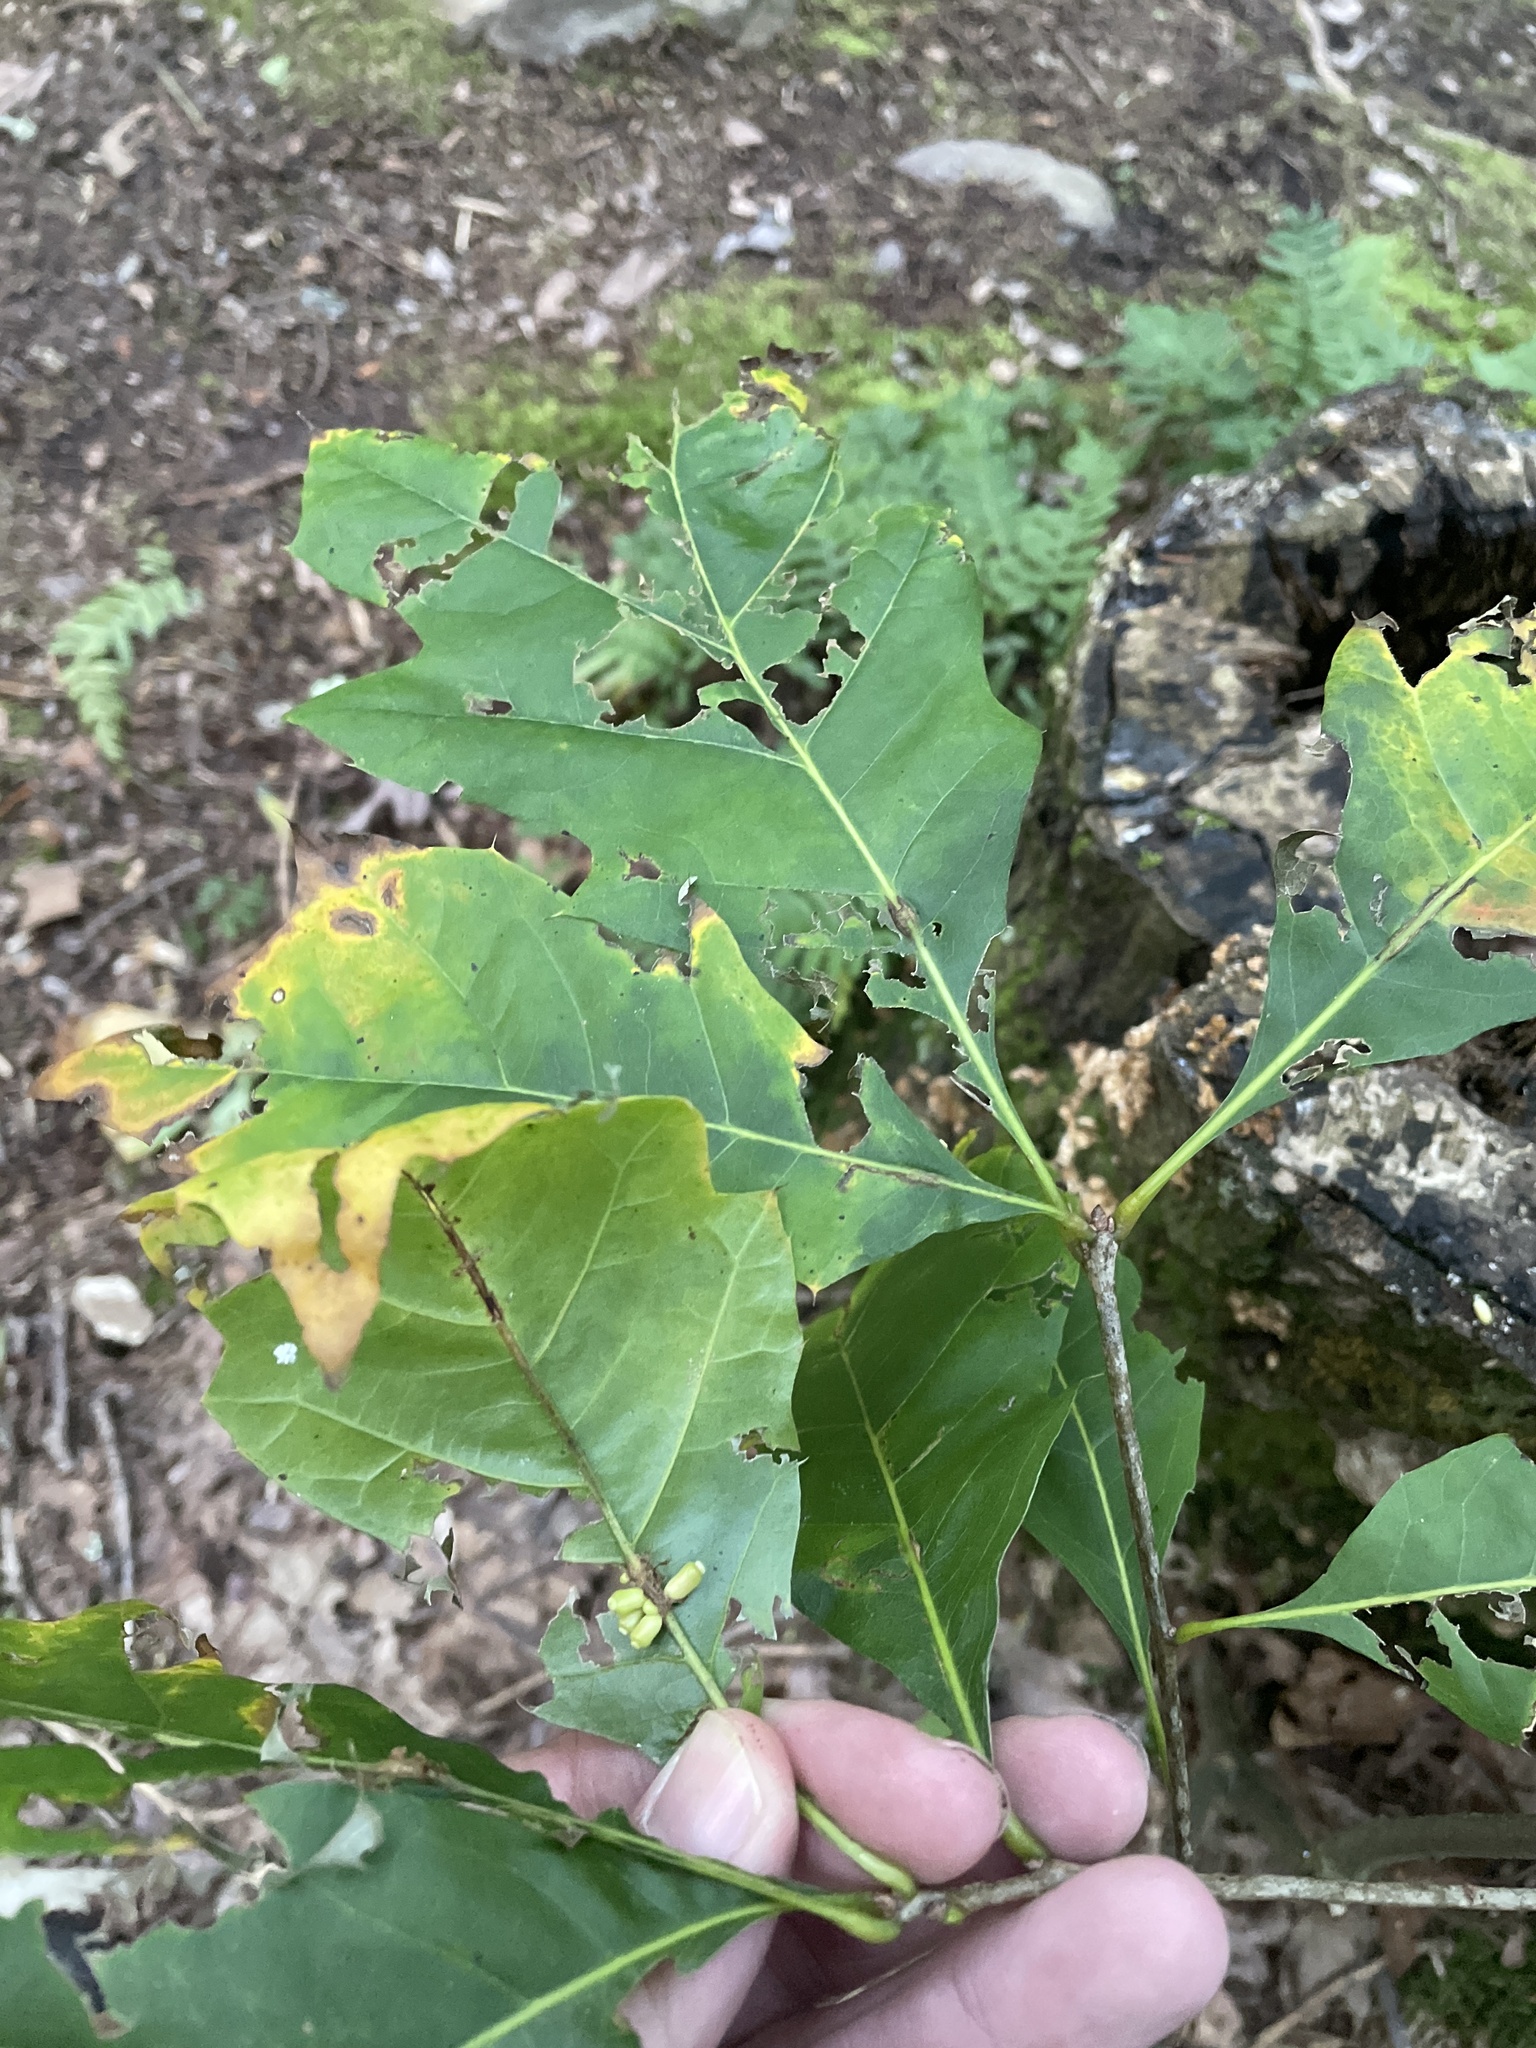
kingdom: Animalia
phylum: Arthropoda
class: Insecta
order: Hymenoptera
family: Cynipidae
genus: Kokkocynips
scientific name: Kokkocynips decidua
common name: Oak wheat gall
